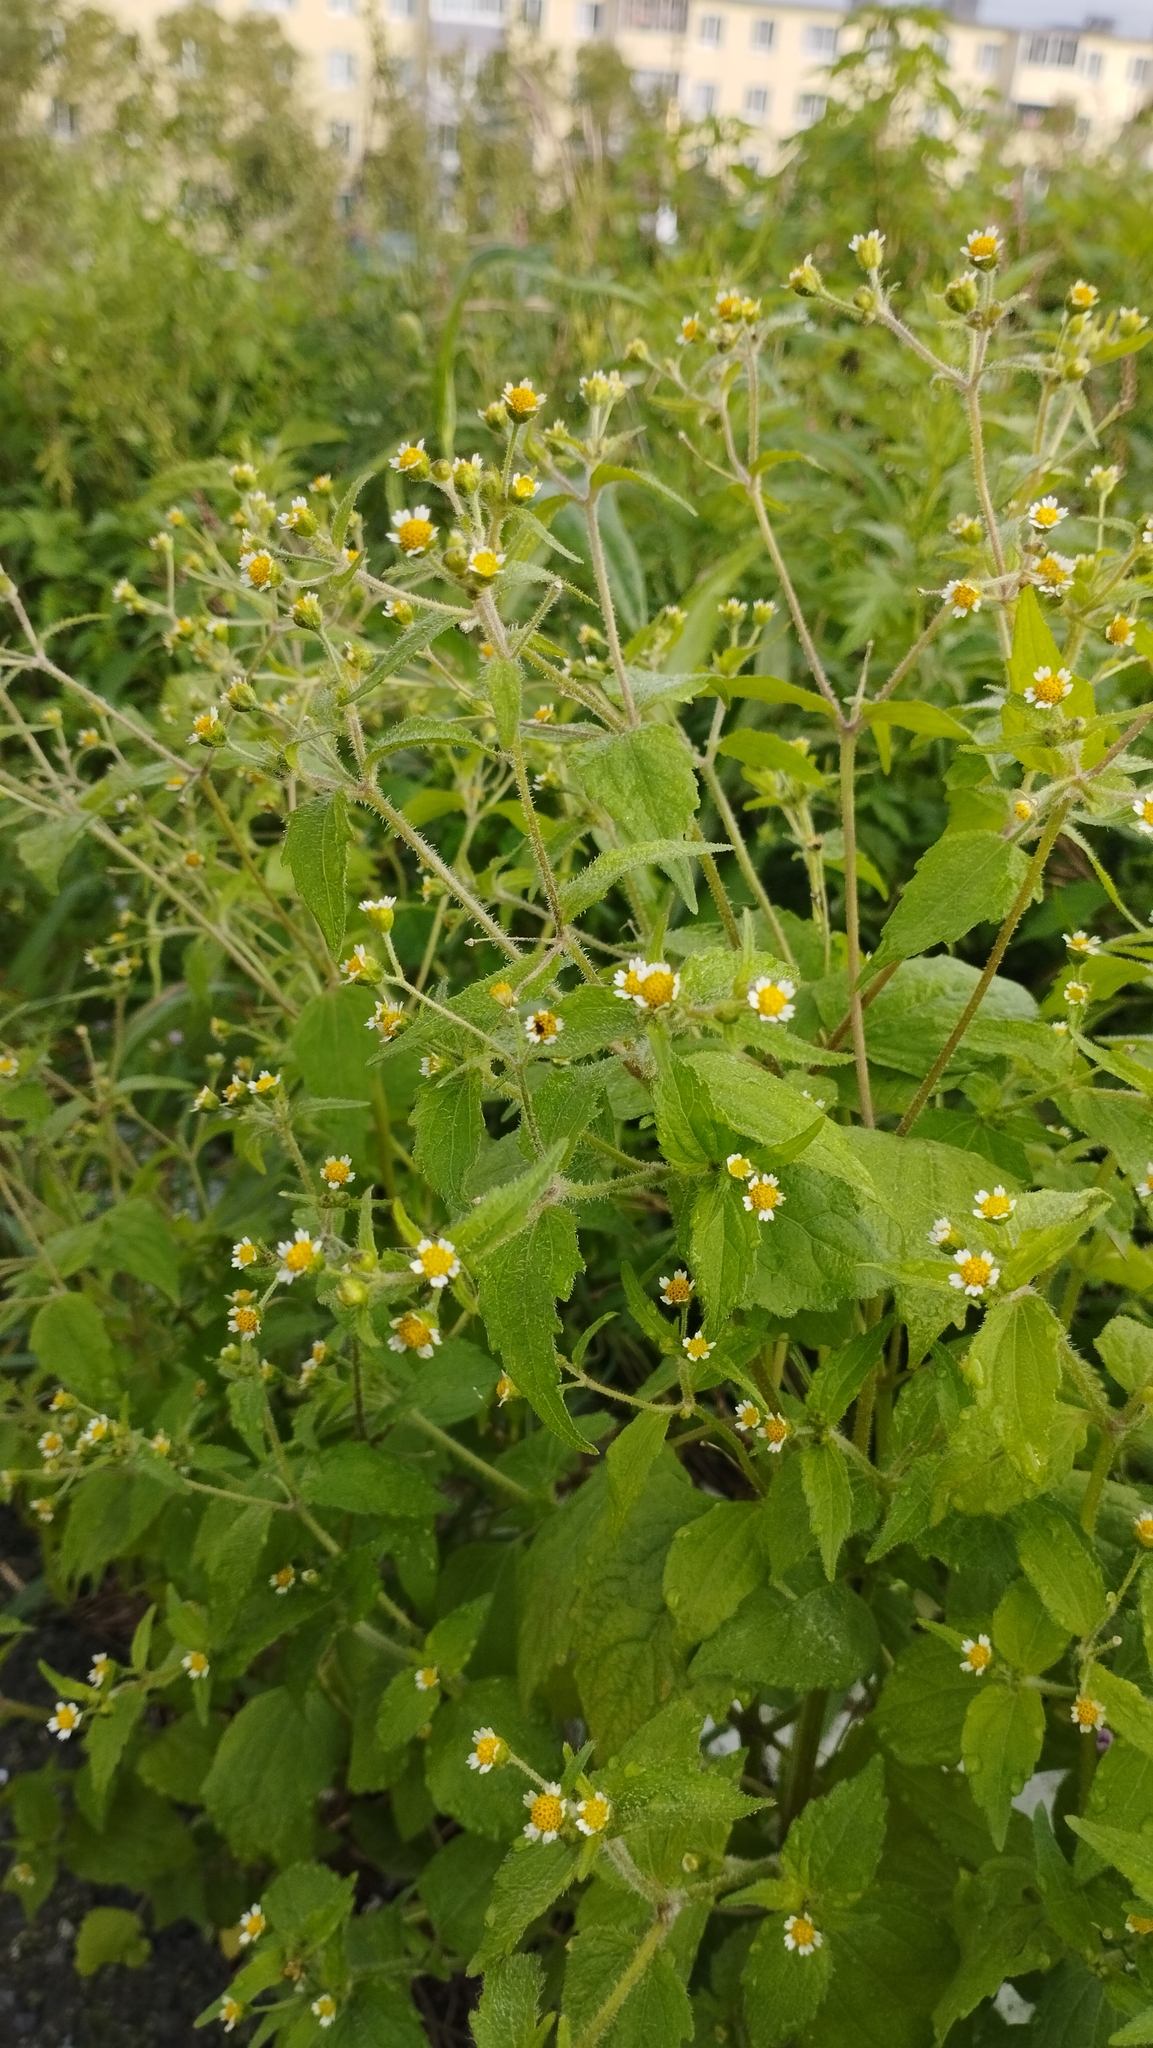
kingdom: Plantae
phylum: Tracheophyta
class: Magnoliopsida
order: Asterales
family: Asteraceae
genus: Galinsoga
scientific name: Galinsoga quadriradiata
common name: Shaggy soldier
